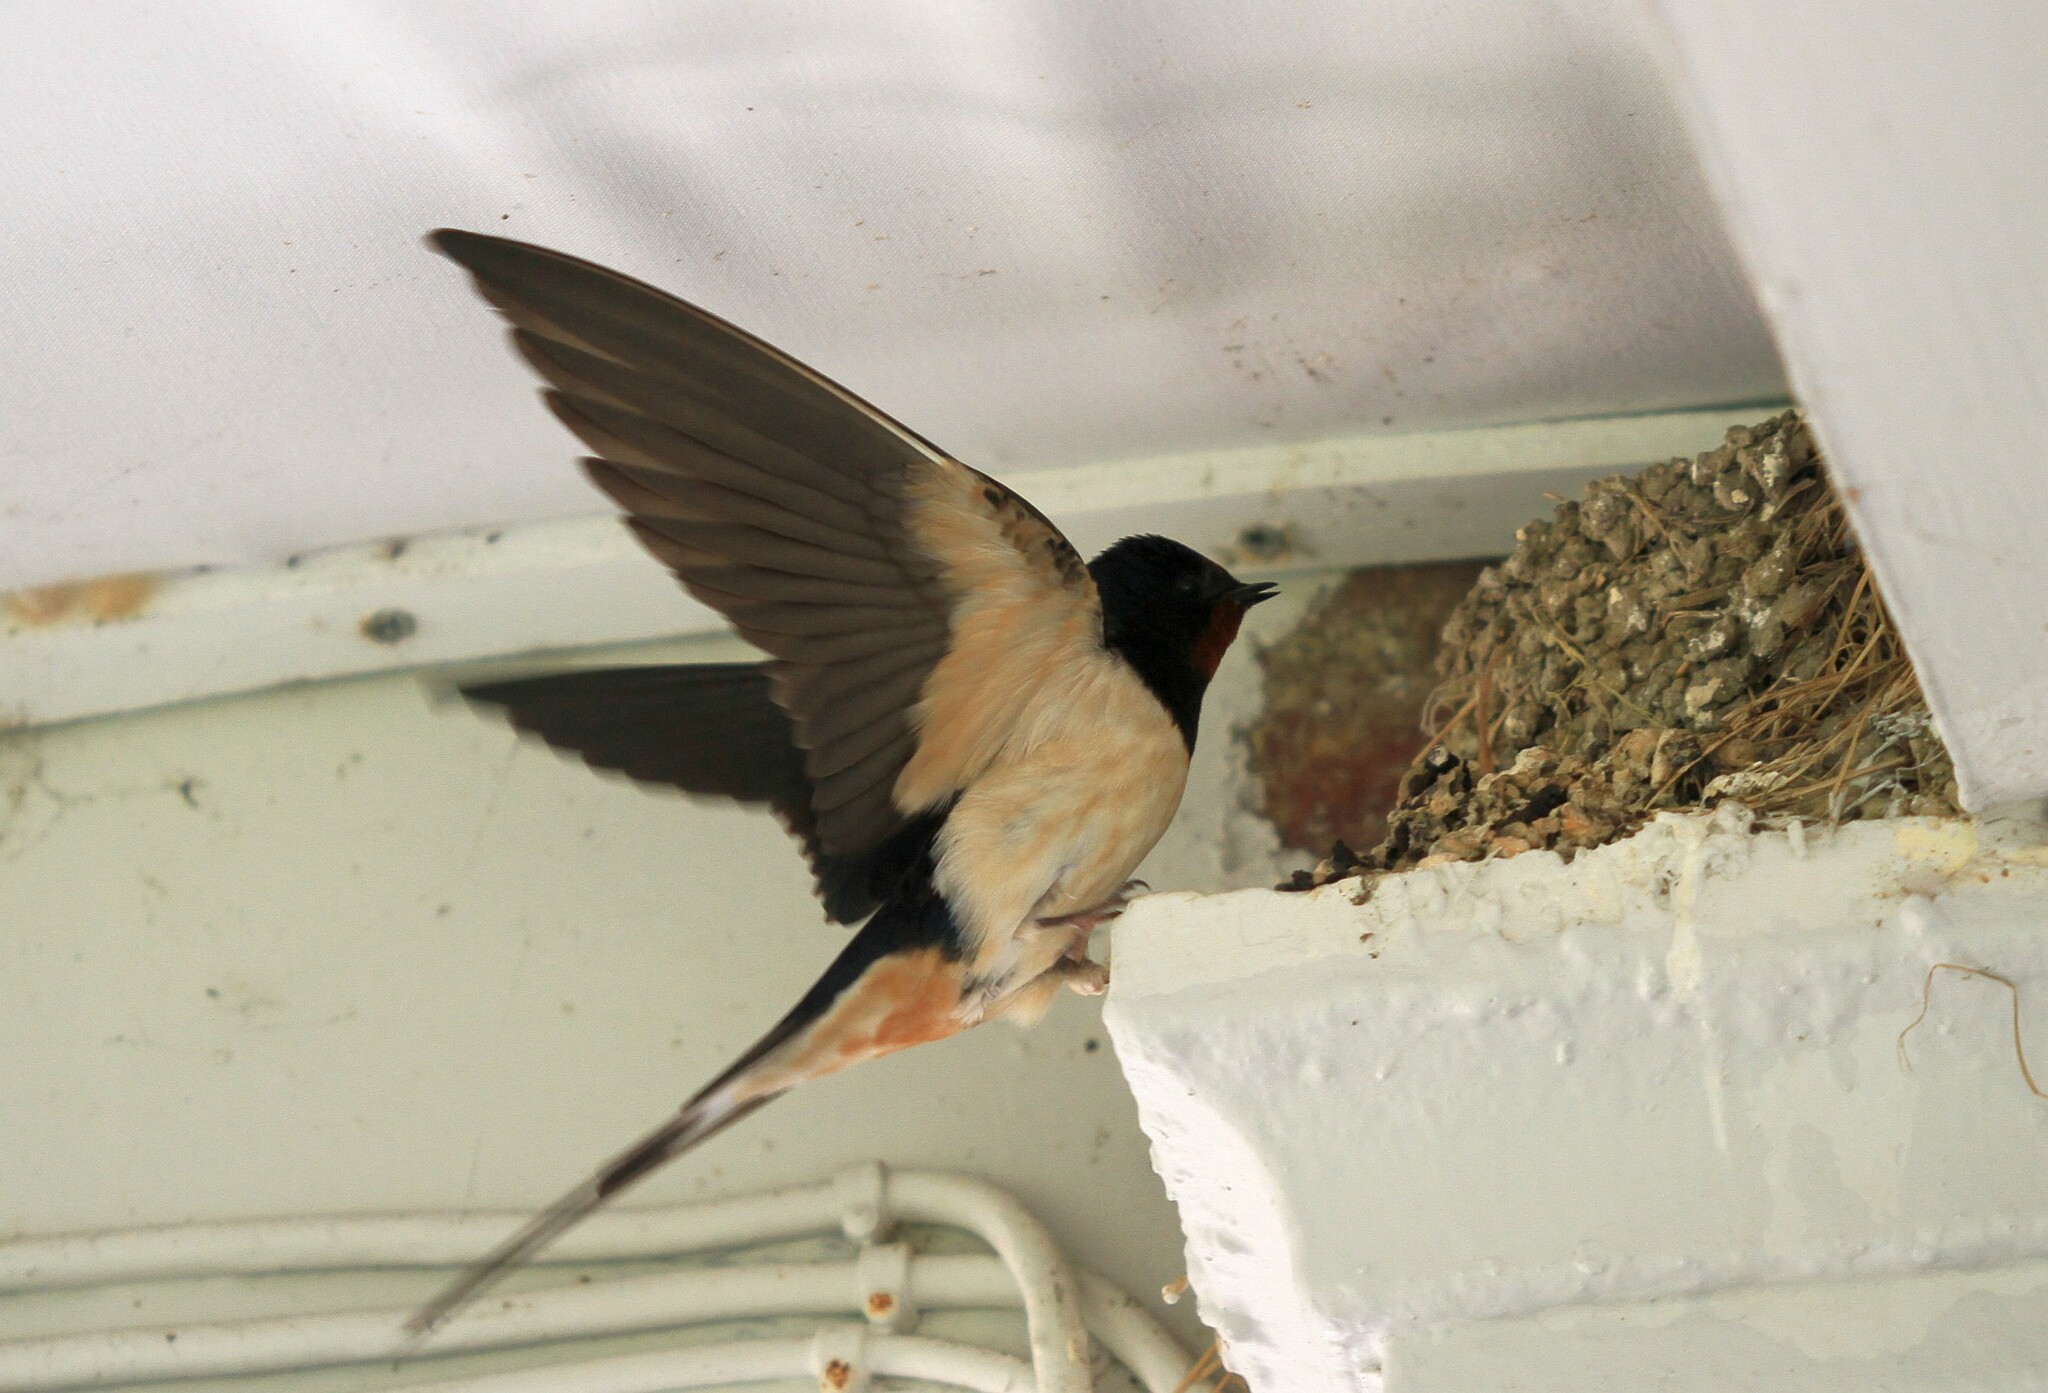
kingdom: Animalia
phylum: Chordata
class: Aves
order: Passeriformes
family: Hirundinidae
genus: Hirundo
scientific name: Hirundo rustica
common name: Barn swallow
